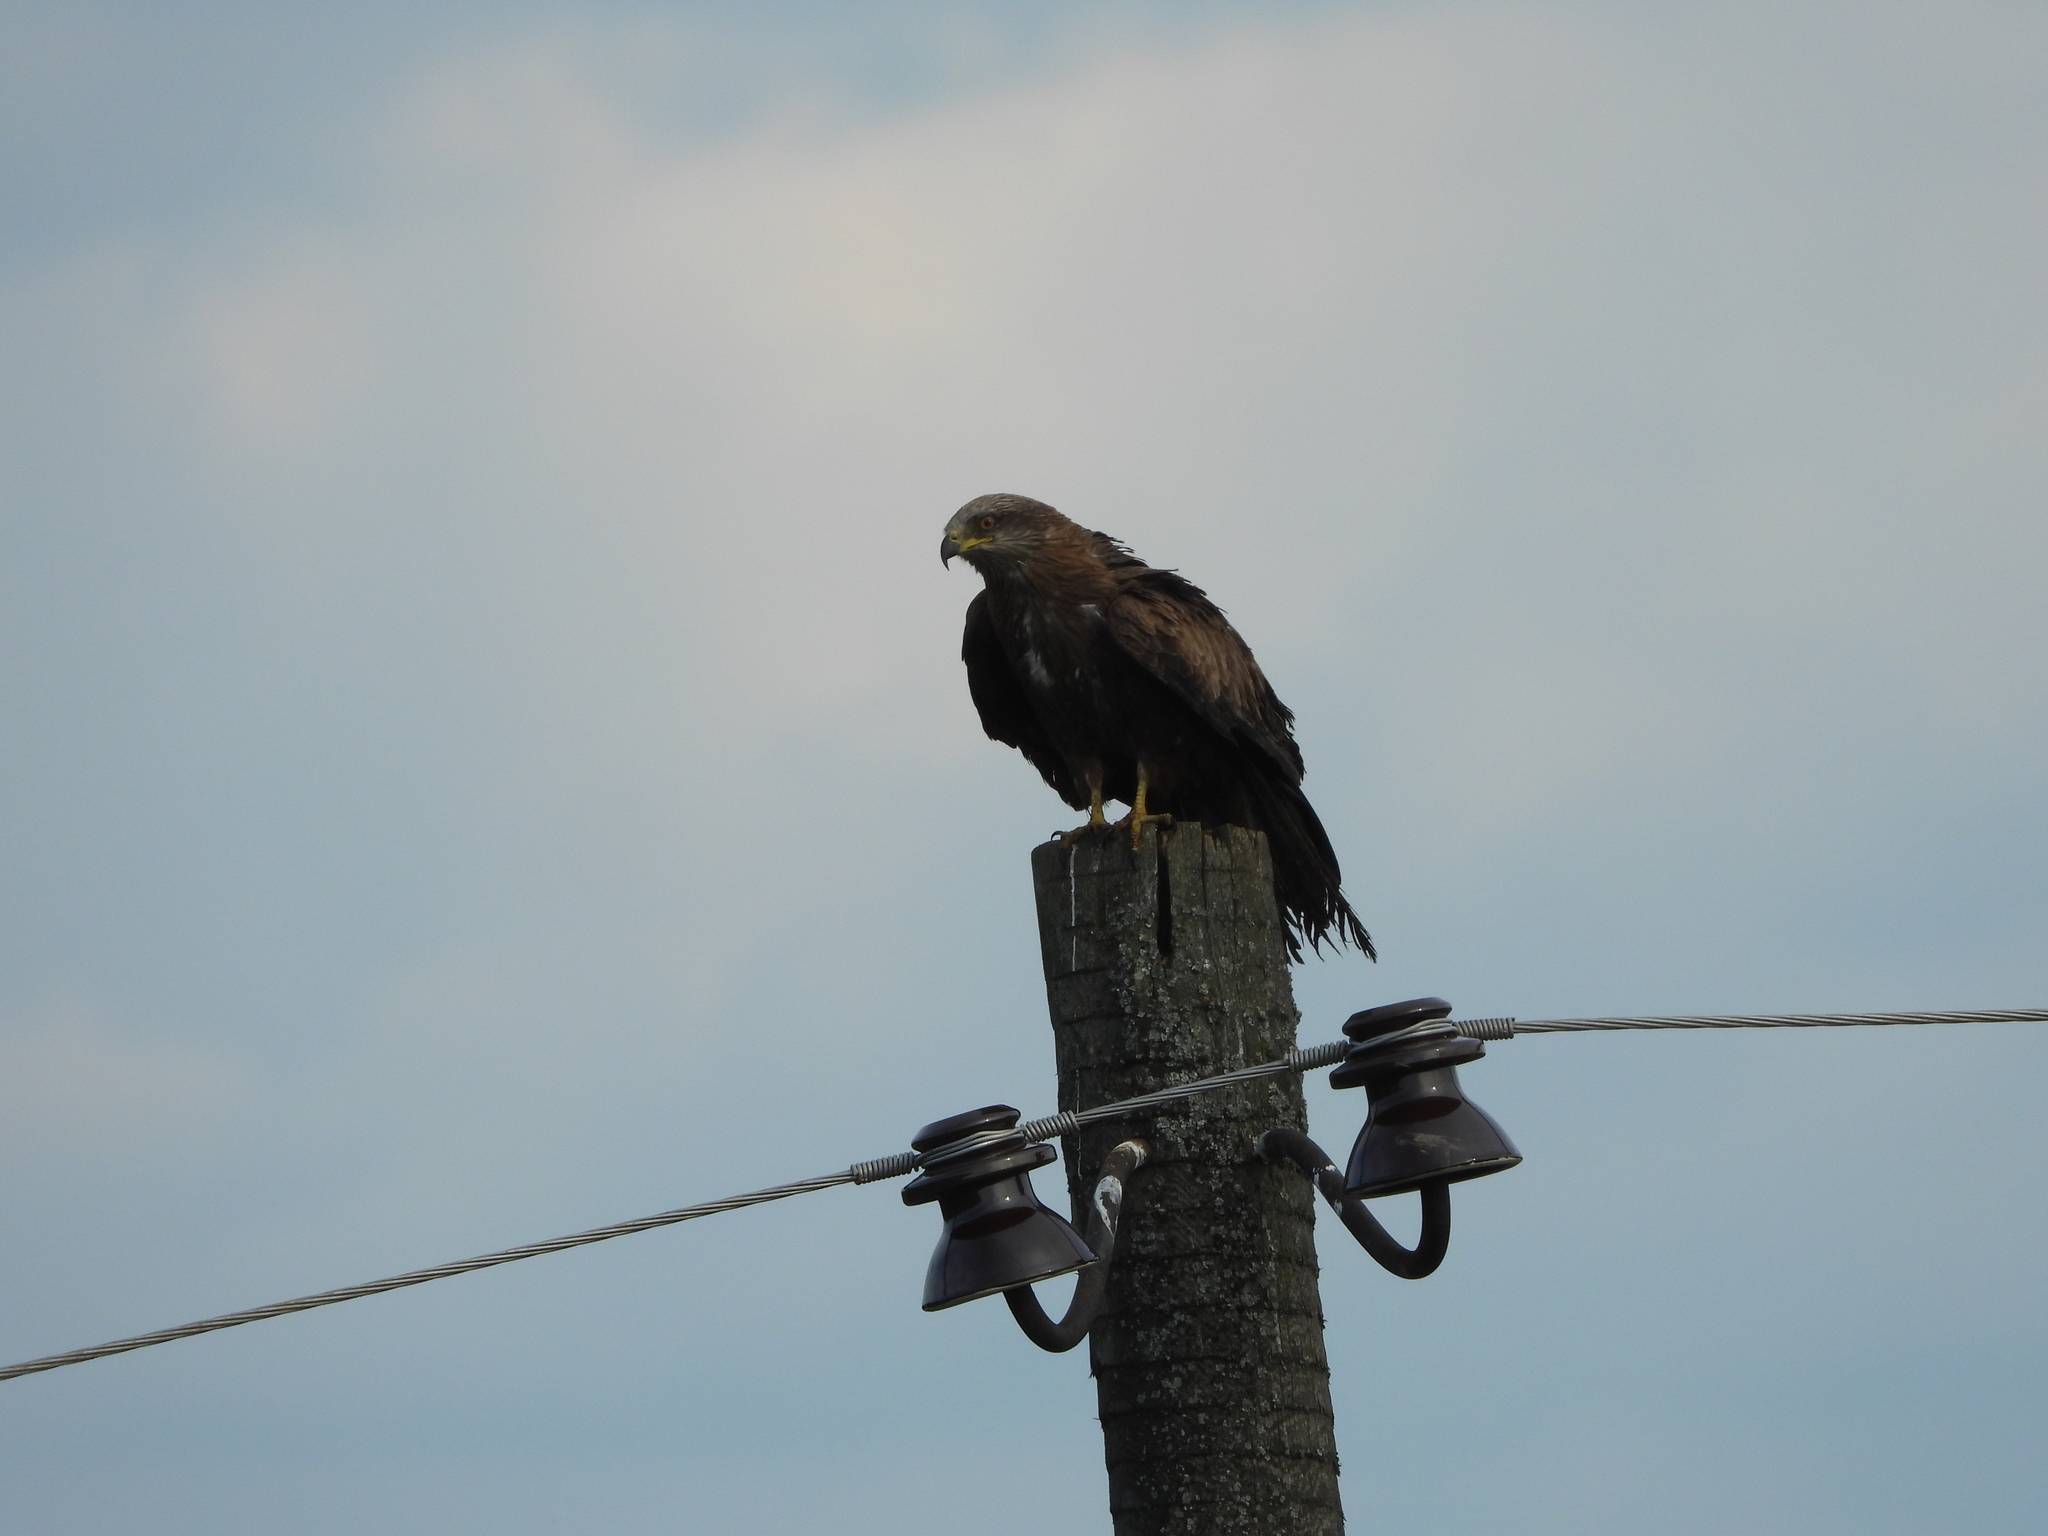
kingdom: Animalia
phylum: Chordata
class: Aves
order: Accipitriformes
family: Accipitridae
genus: Milvus
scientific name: Milvus migrans
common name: Black kite
